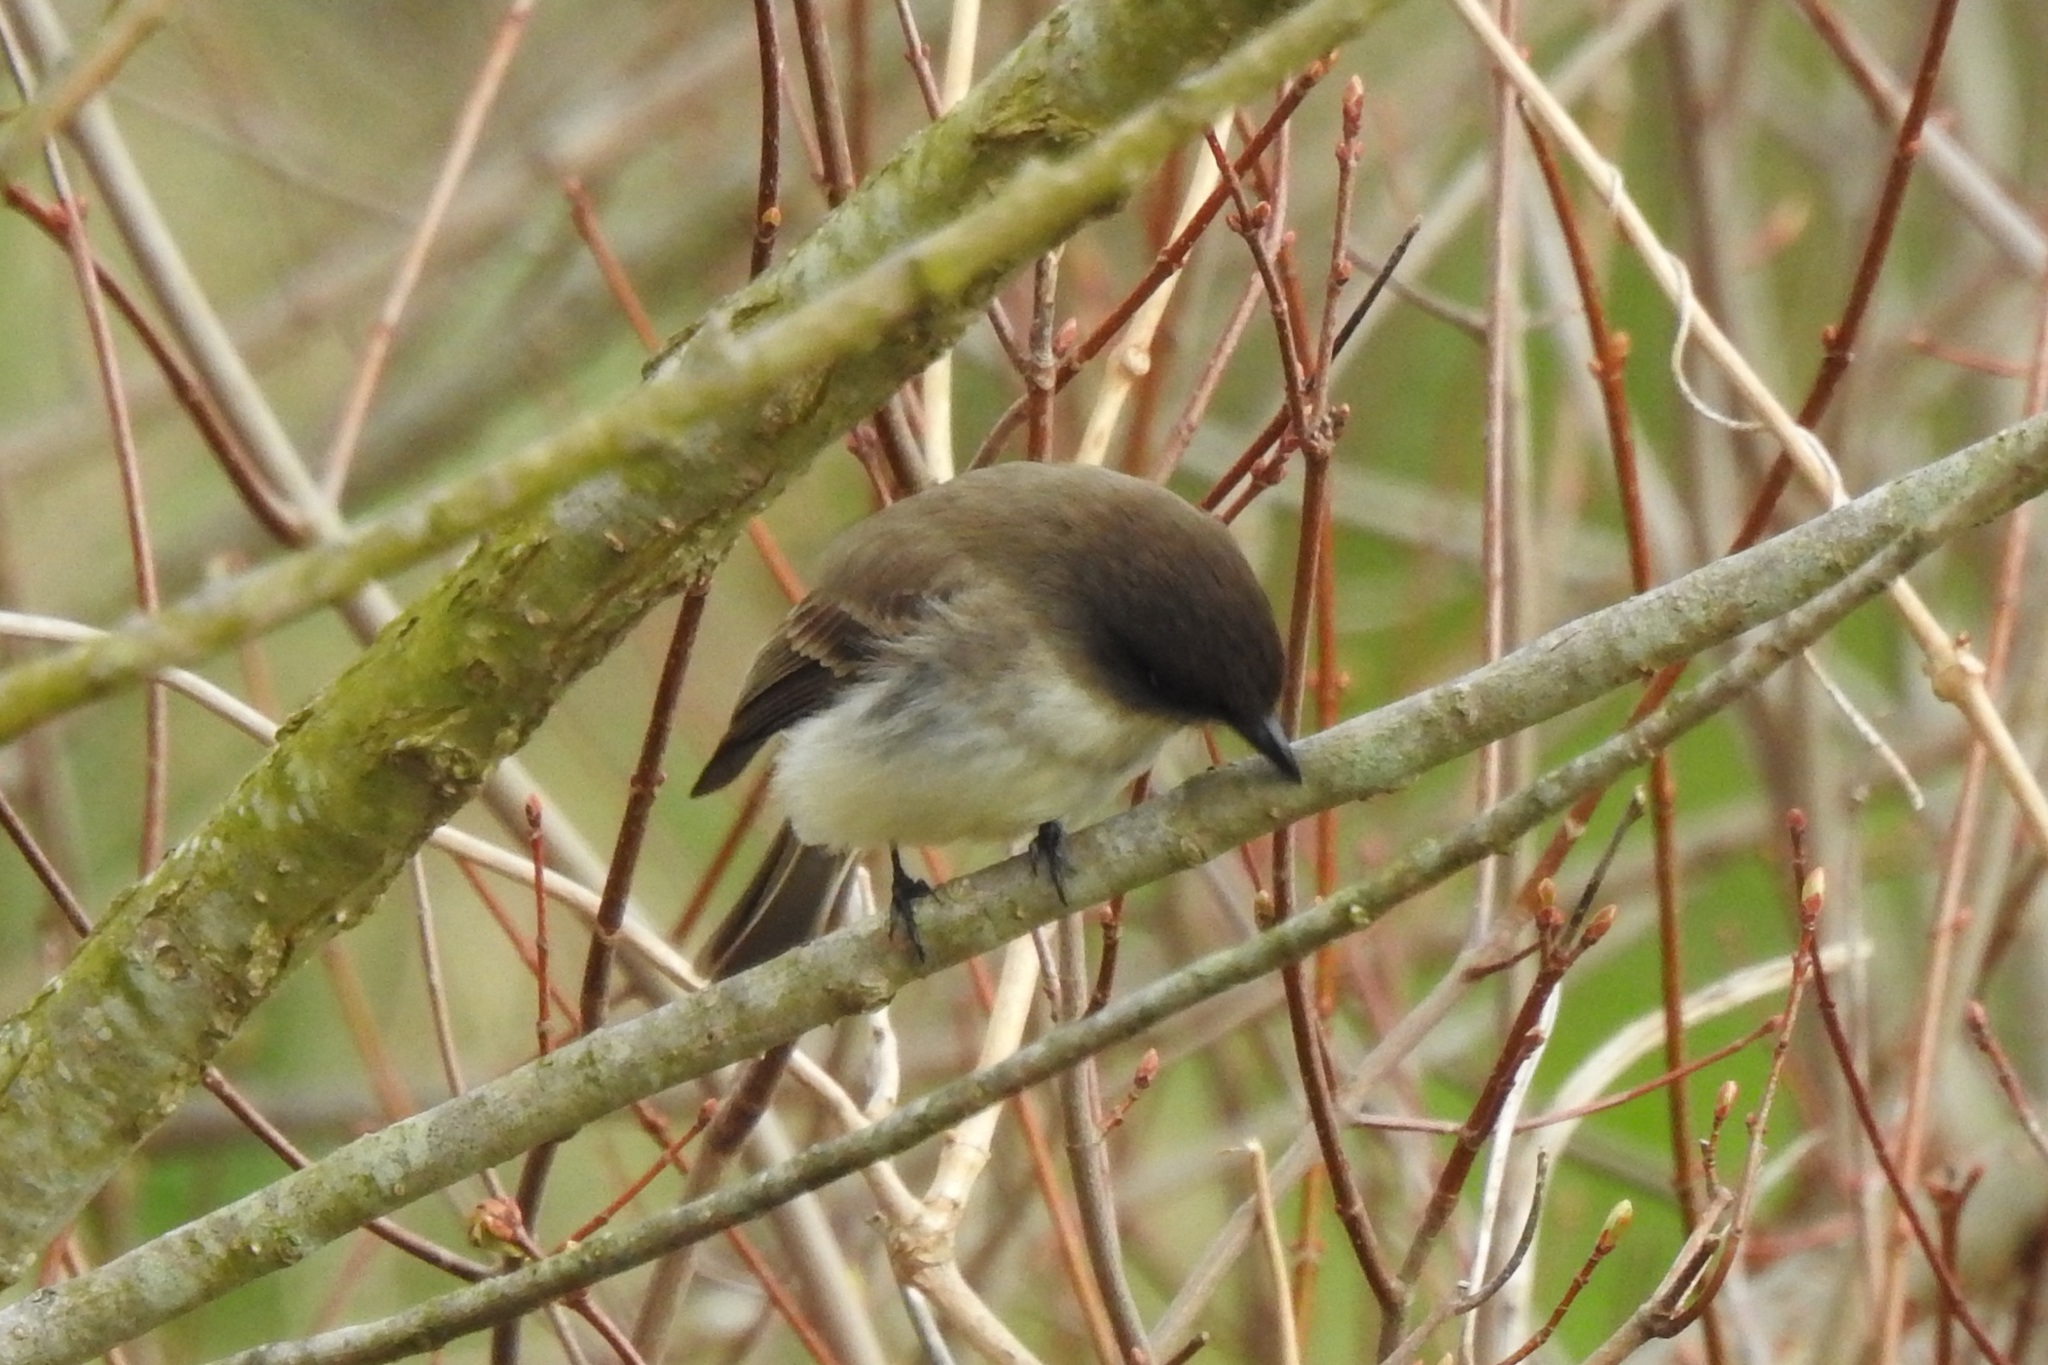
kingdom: Animalia
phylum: Chordata
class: Aves
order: Passeriformes
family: Tyrannidae
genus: Sayornis
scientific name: Sayornis phoebe
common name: Eastern phoebe
